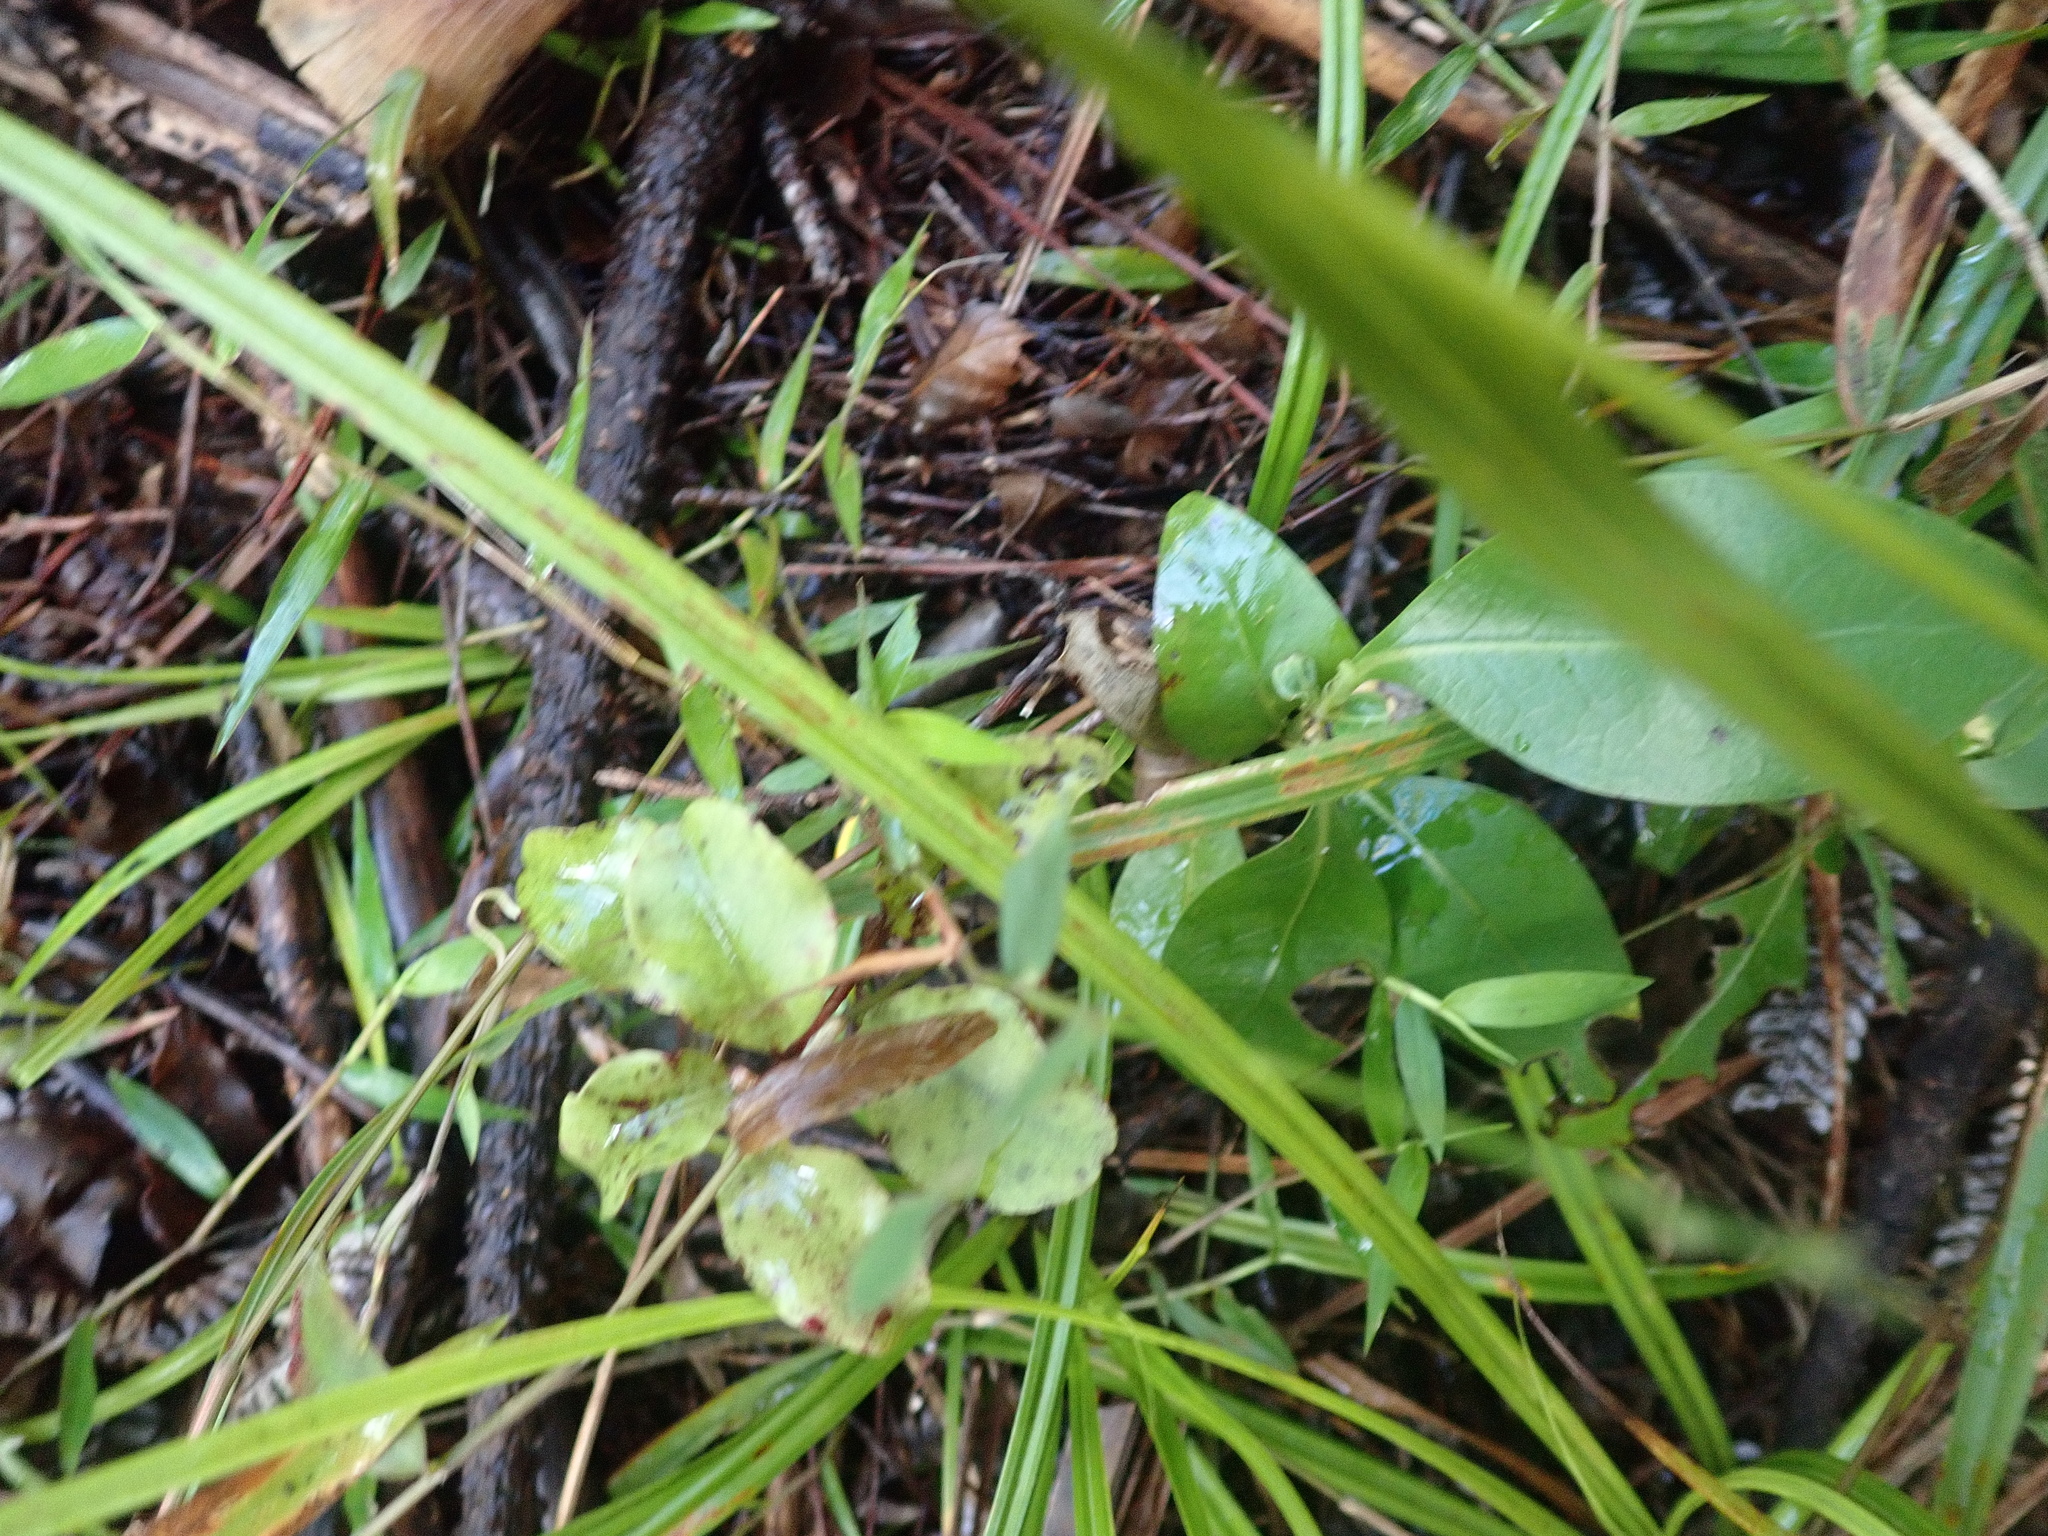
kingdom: Plantae
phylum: Tracheophyta
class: Magnoliopsida
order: Ericales
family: Primulaceae
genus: Myrsine
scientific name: Myrsine australis
